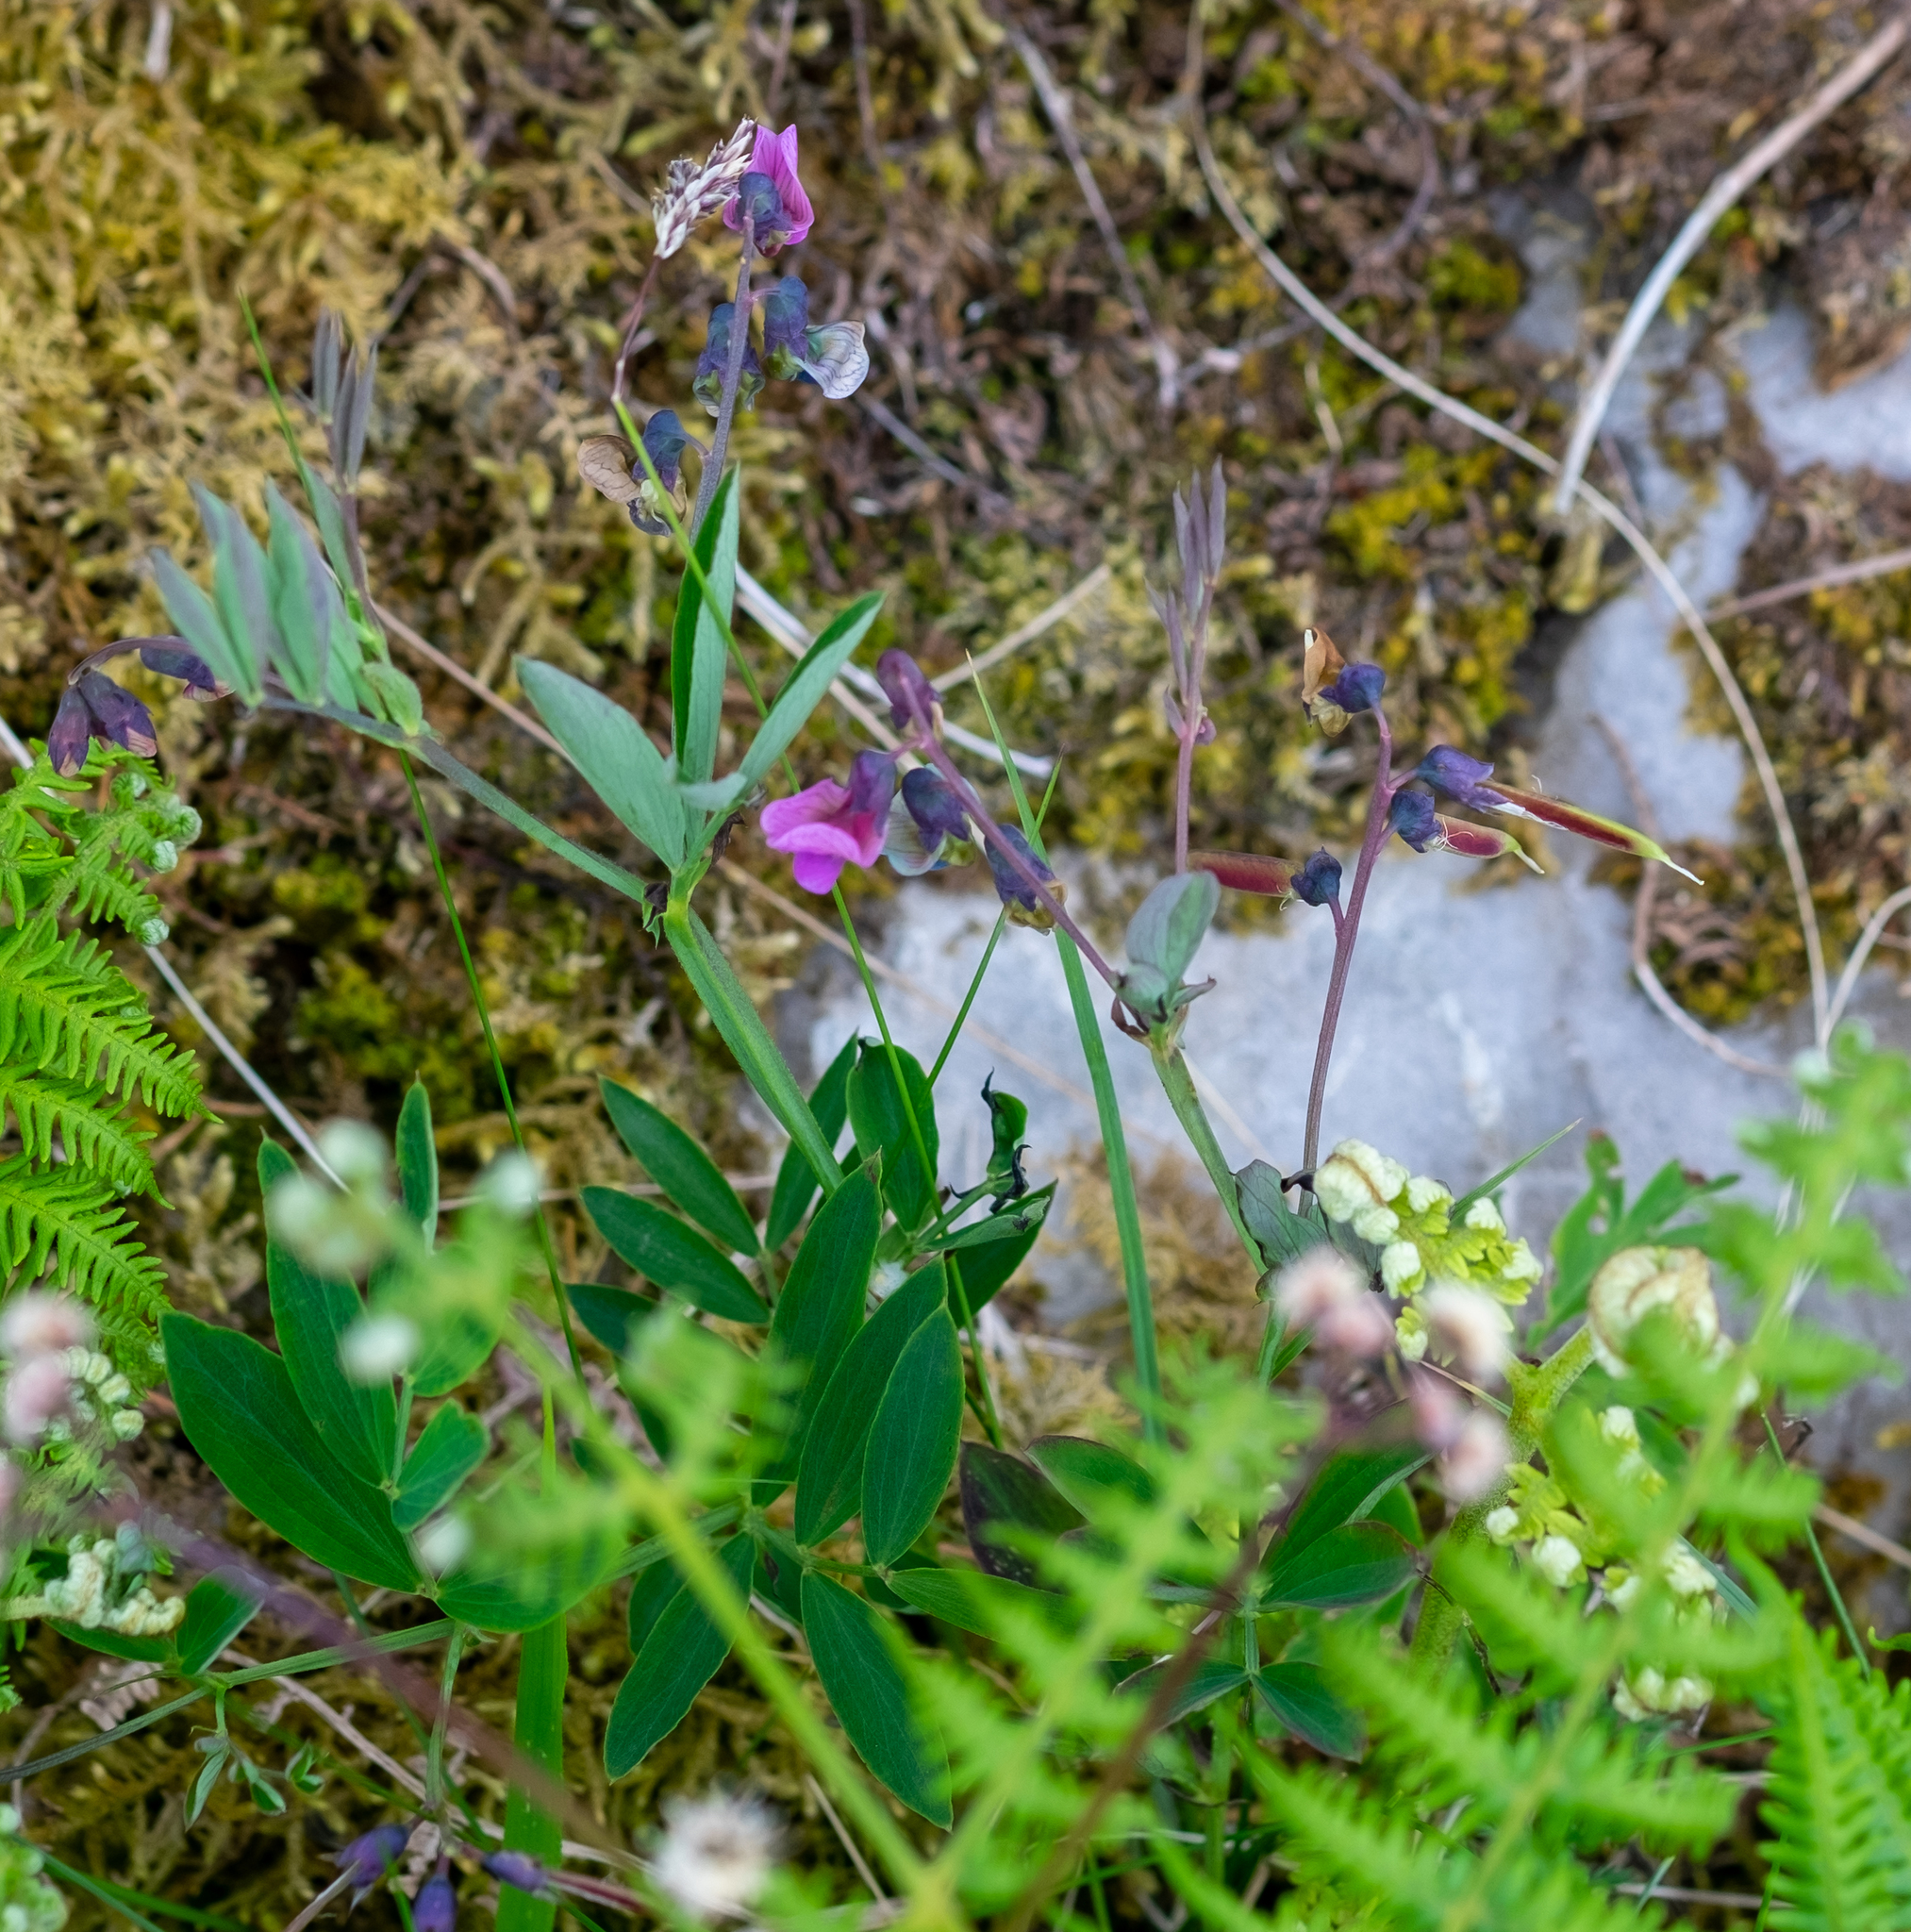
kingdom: Plantae
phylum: Tracheophyta
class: Magnoliopsida
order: Fabales
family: Fabaceae
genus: Lathyrus
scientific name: Lathyrus linifolius
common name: Bitter-vetch
